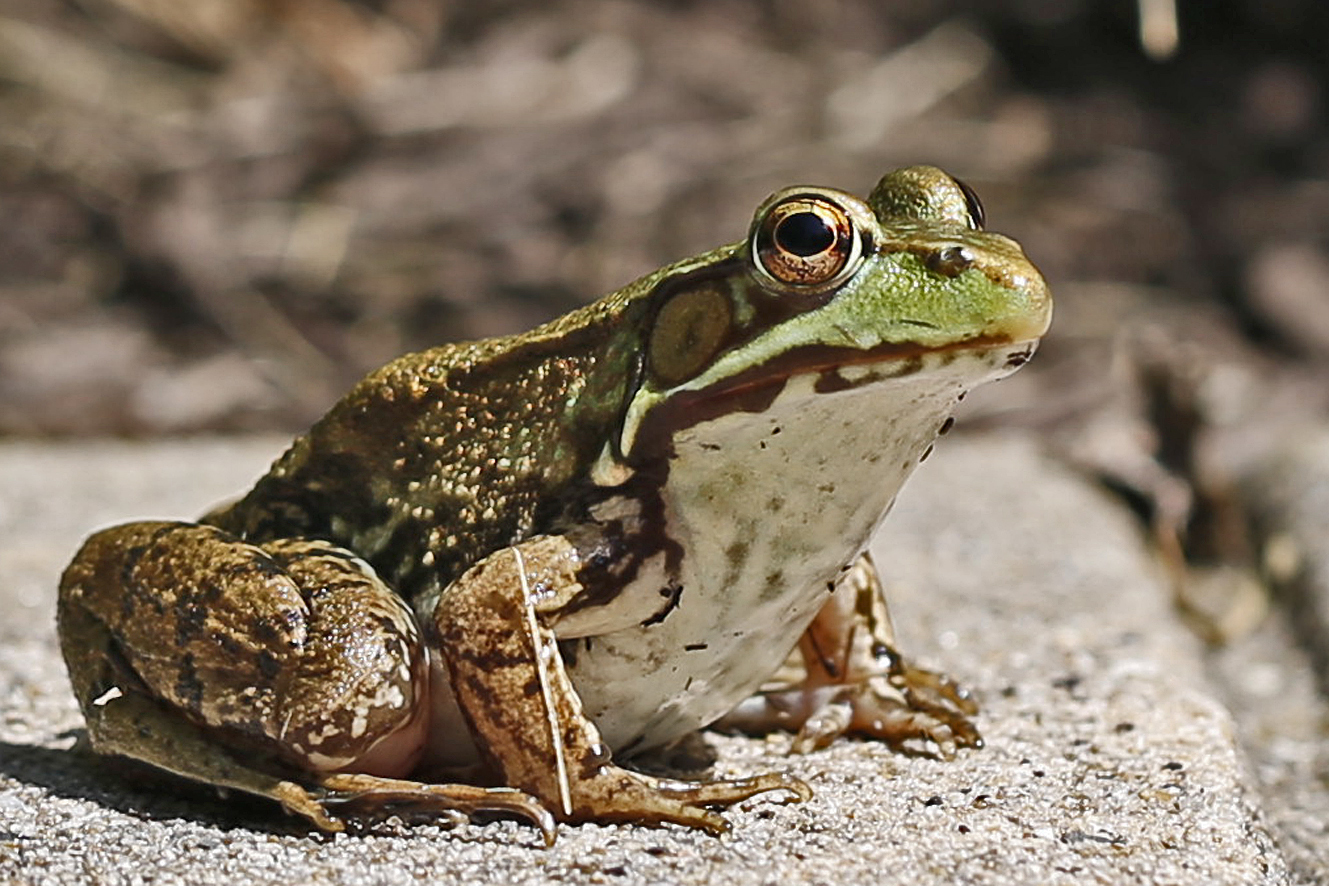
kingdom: Animalia
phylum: Chordata
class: Amphibia
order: Anura
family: Ranidae
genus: Lithobates
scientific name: Lithobates clamitans
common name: Green frog
